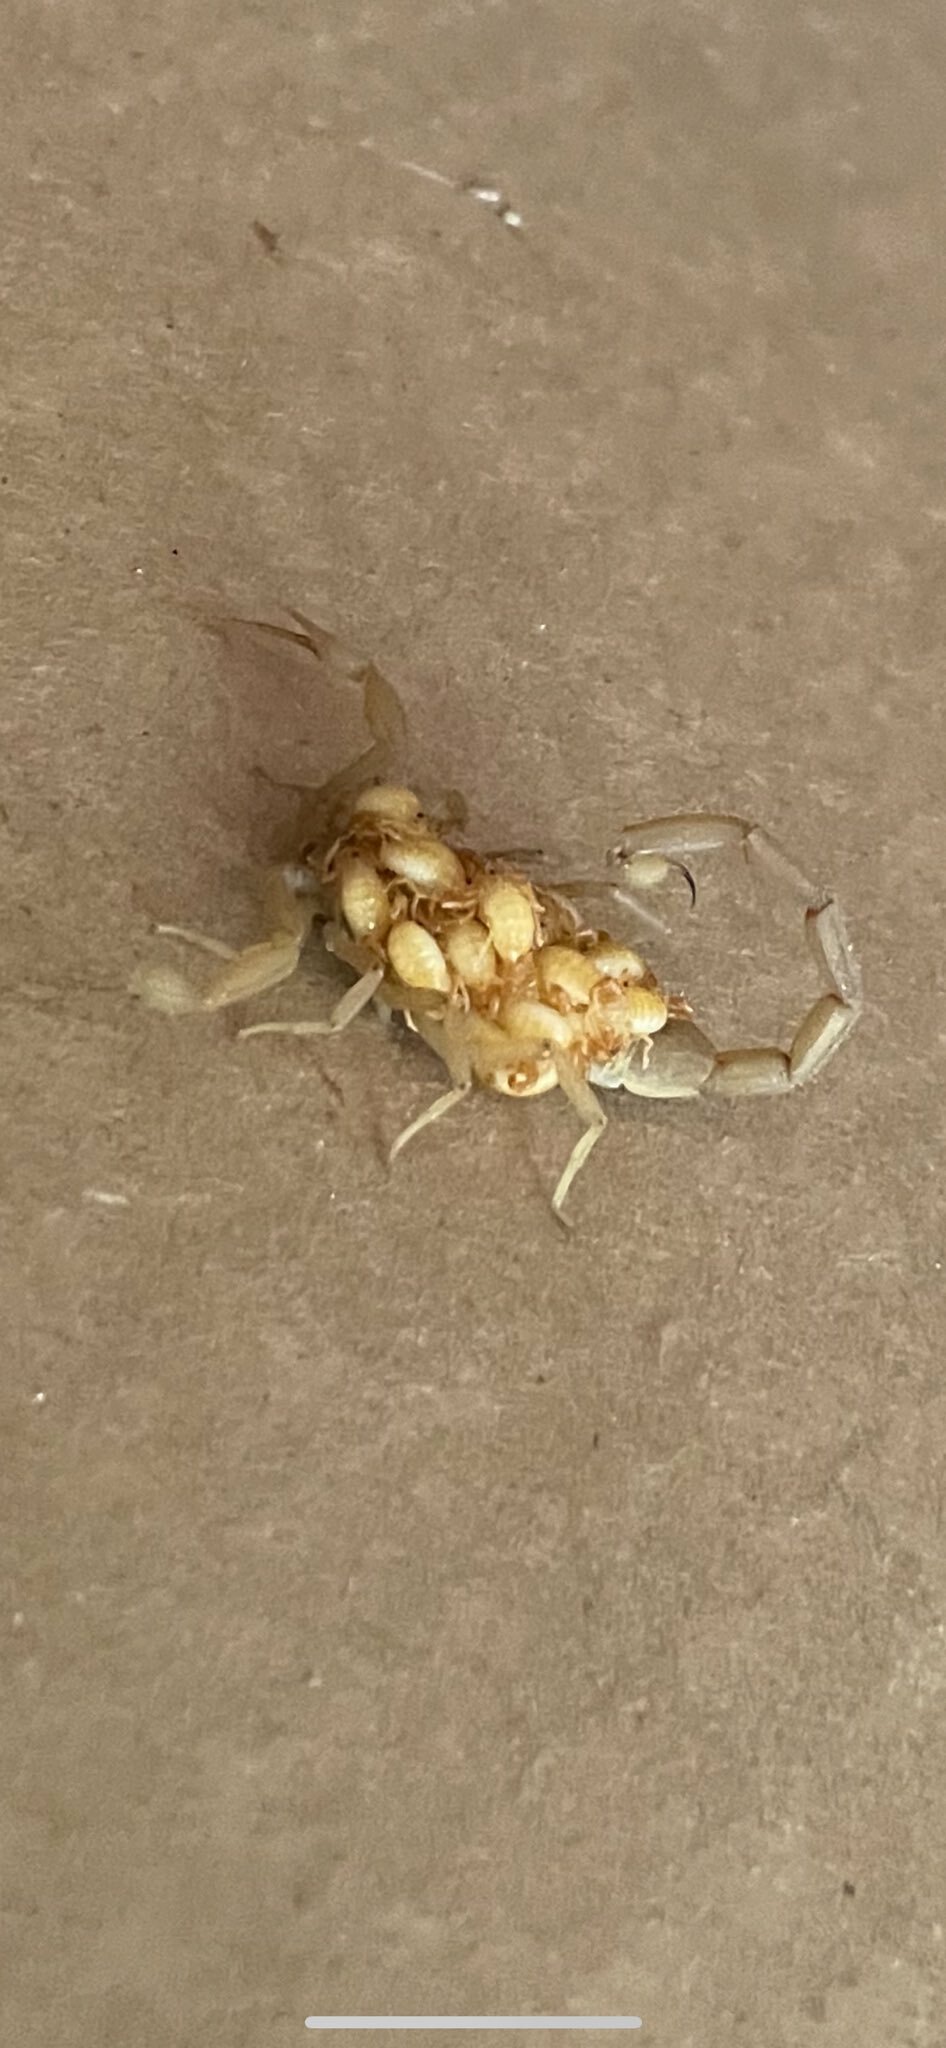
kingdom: Animalia
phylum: Arthropoda
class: Arachnida
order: Scorpiones
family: Buthidae
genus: Centruroides
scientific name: Centruroides sculpturatus
